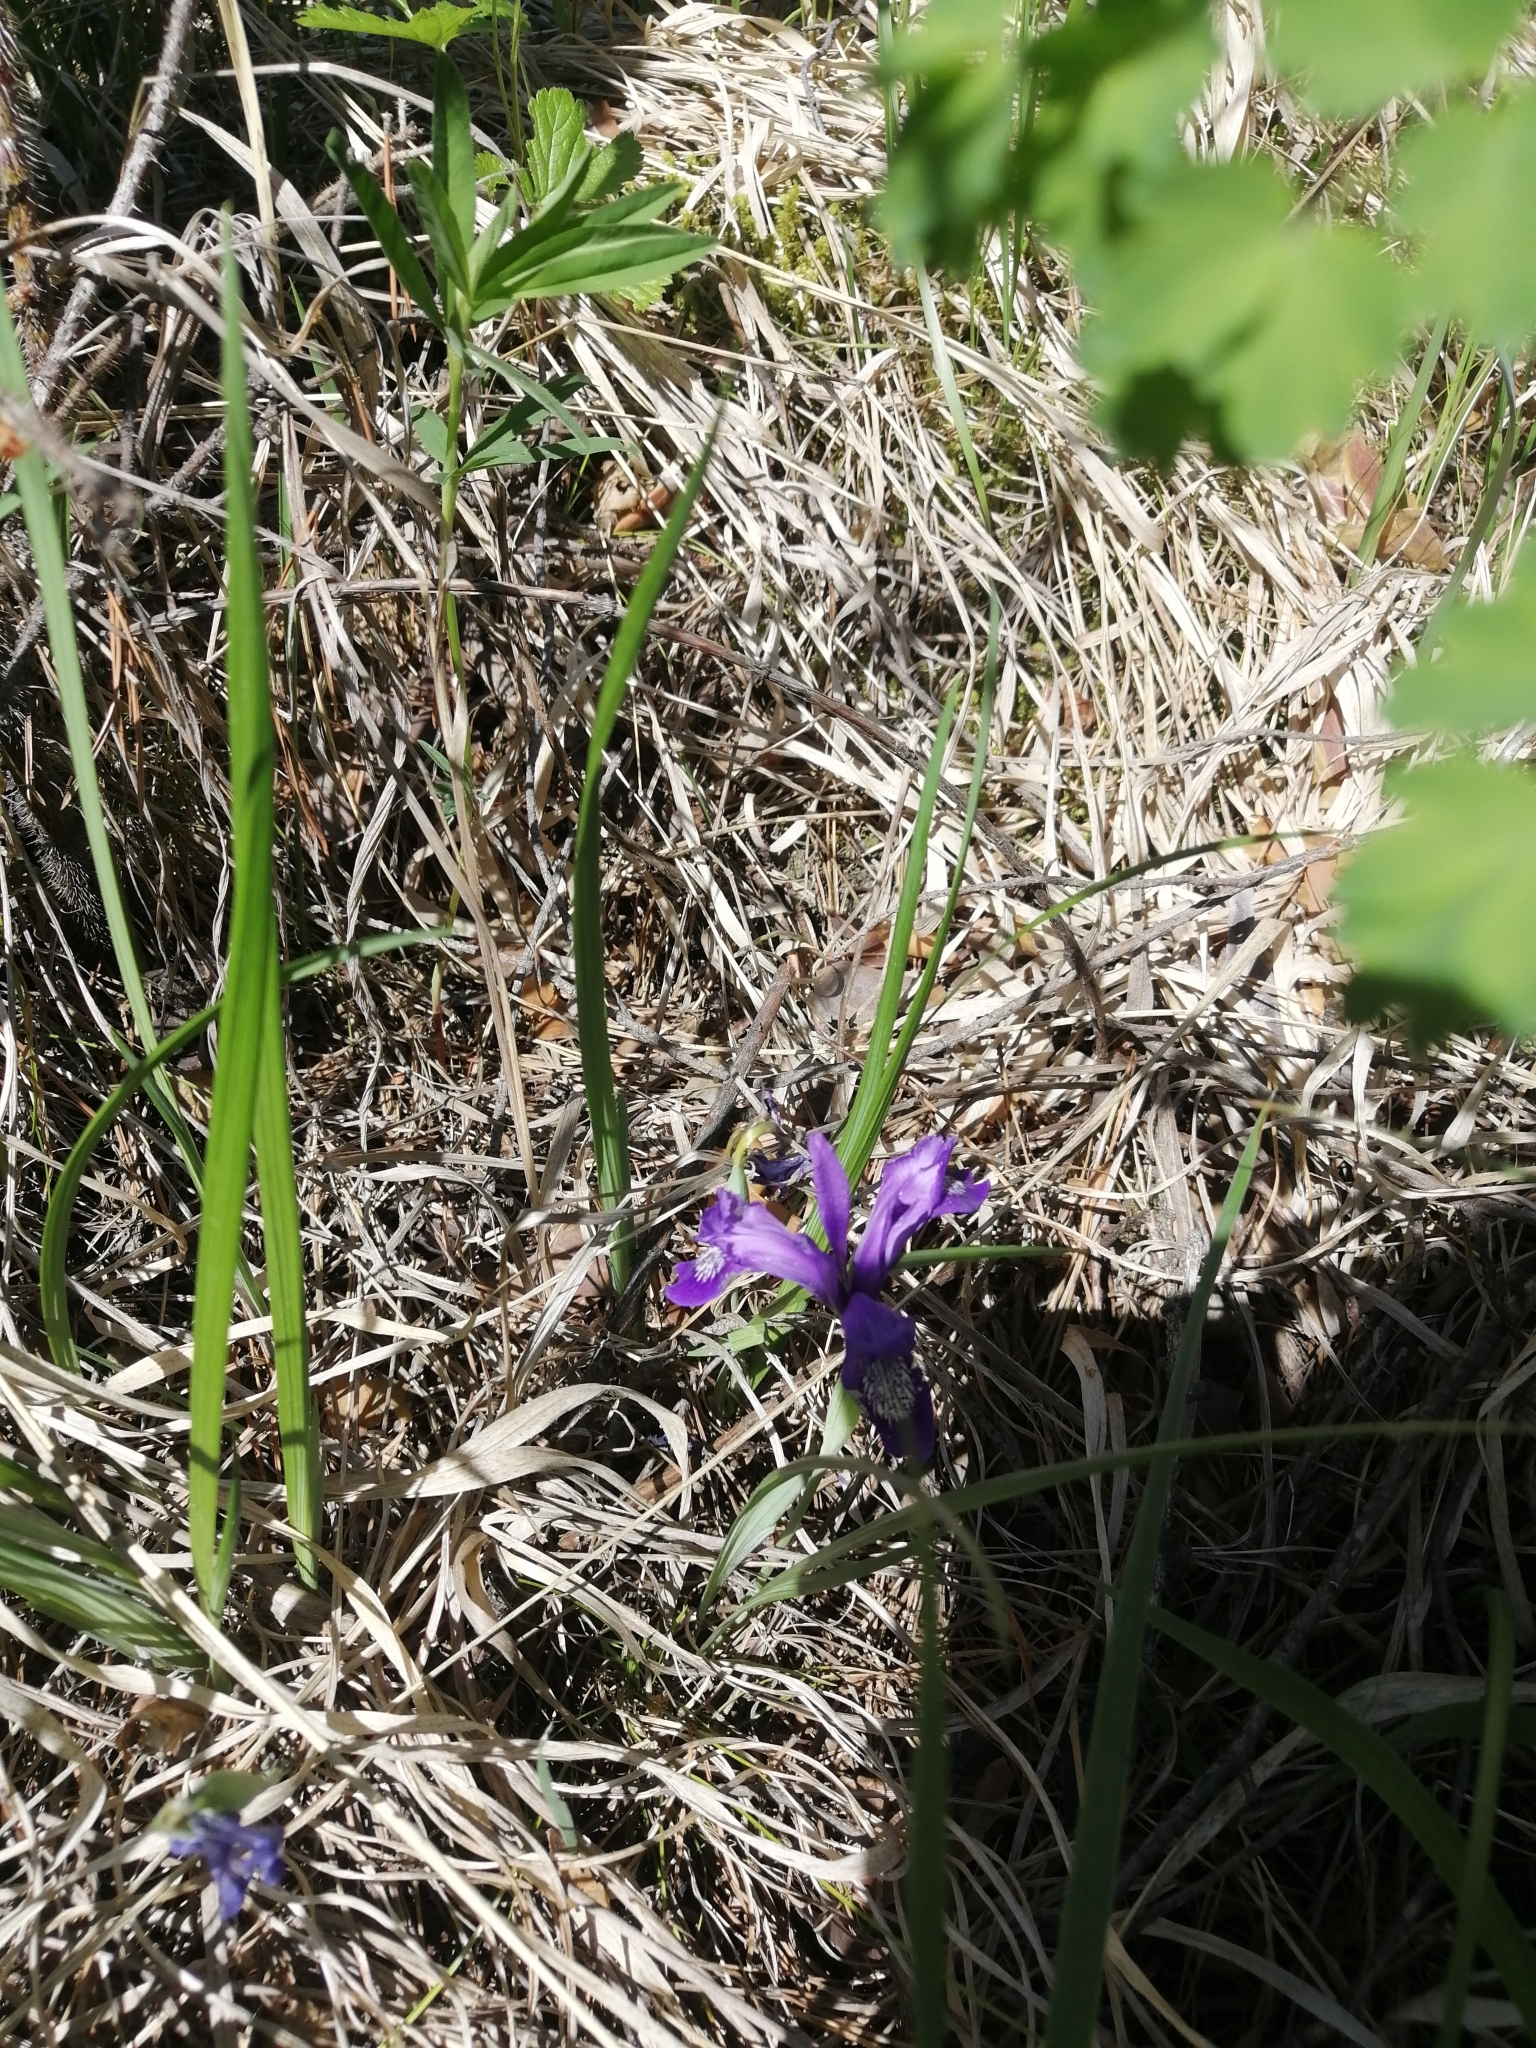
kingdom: Plantae
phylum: Tracheophyta
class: Liliopsida
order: Asparagales
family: Iridaceae
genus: Iris
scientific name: Iris ruthenica
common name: Purple-bract iris
